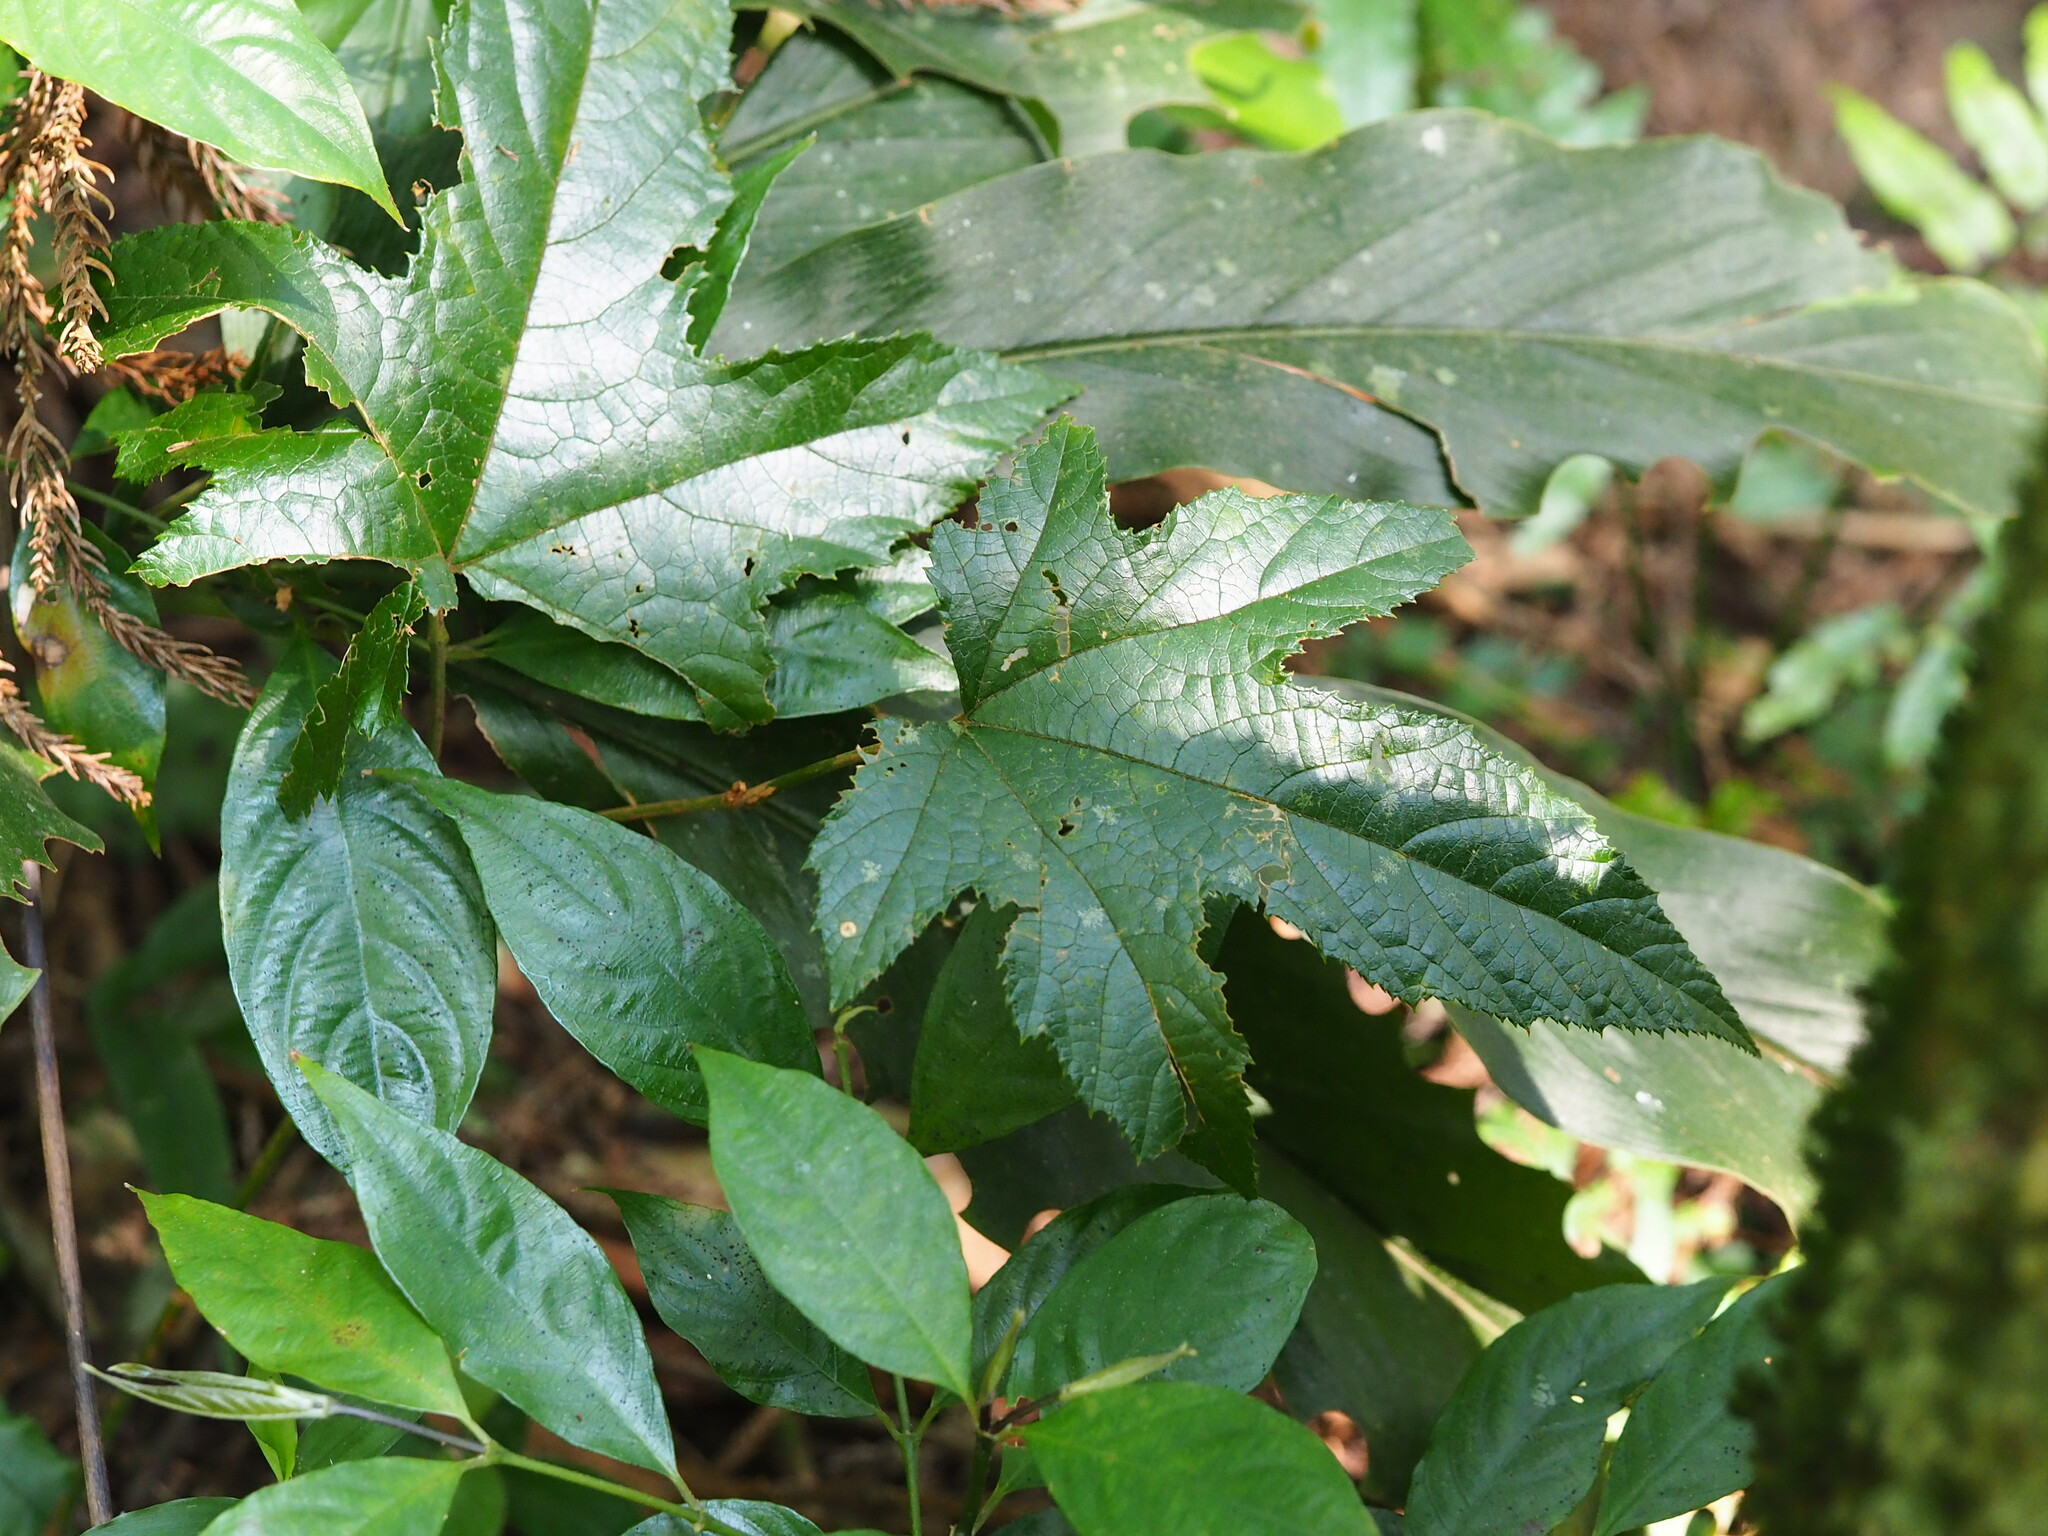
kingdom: Plantae
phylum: Tracheophyta
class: Magnoliopsida
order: Rosales
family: Rosaceae
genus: Rubus
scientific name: Rubus reflexus
